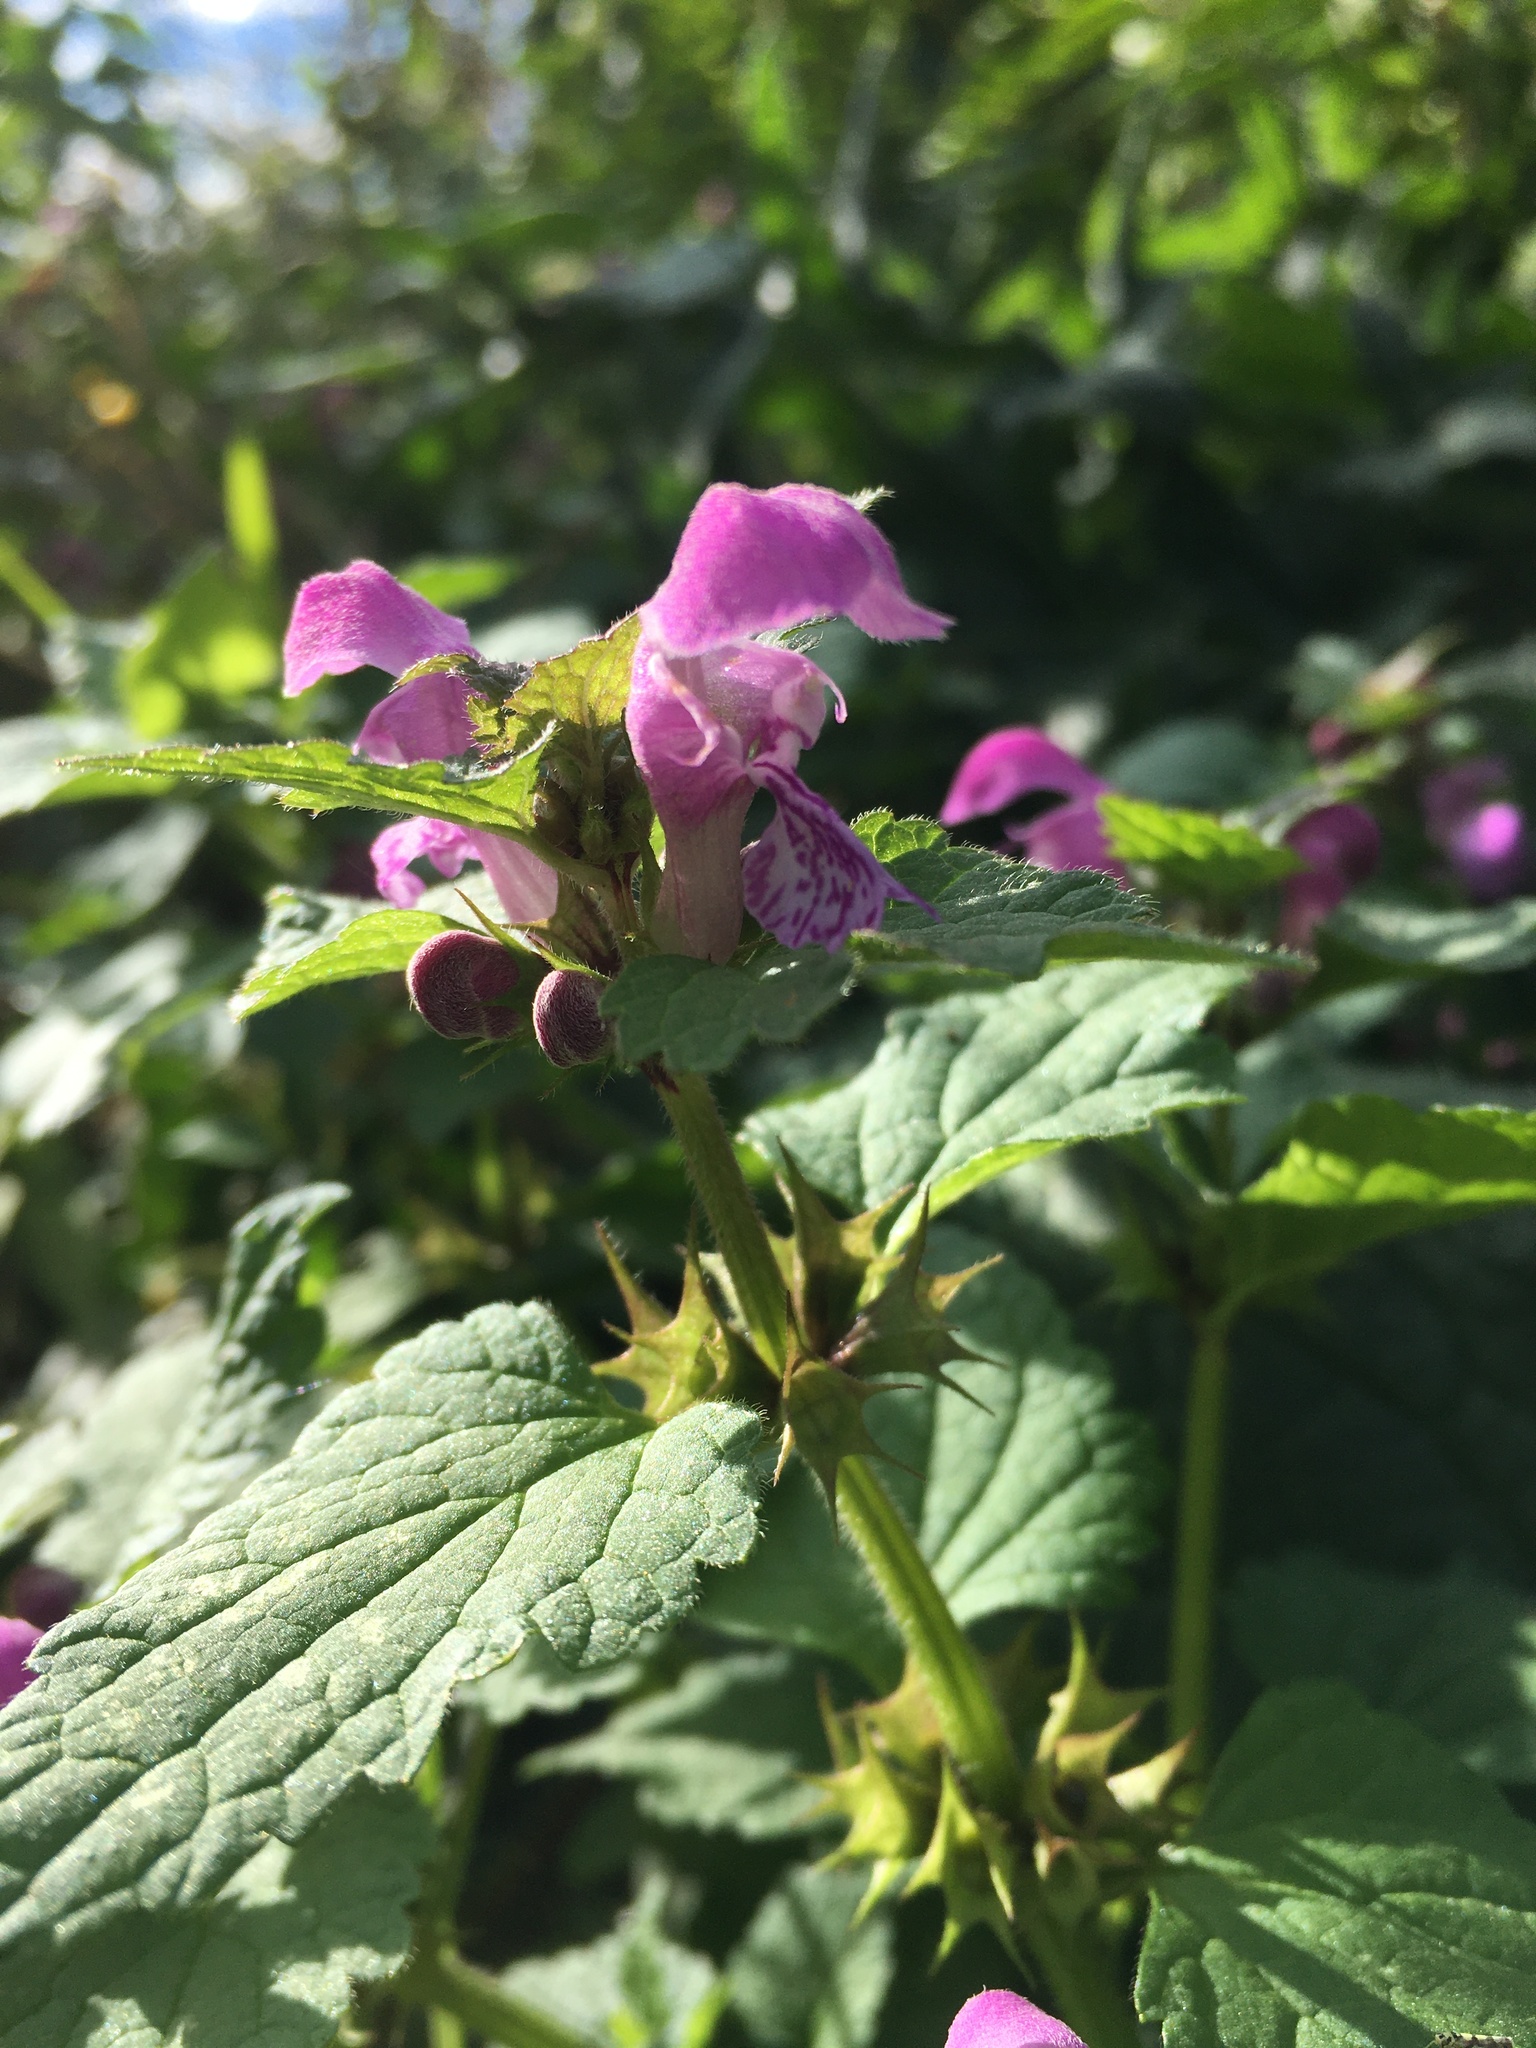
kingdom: Plantae
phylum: Tracheophyta
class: Magnoliopsida
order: Lamiales
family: Lamiaceae
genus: Lamium
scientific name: Lamium maculatum
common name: Spotted dead-nettle
